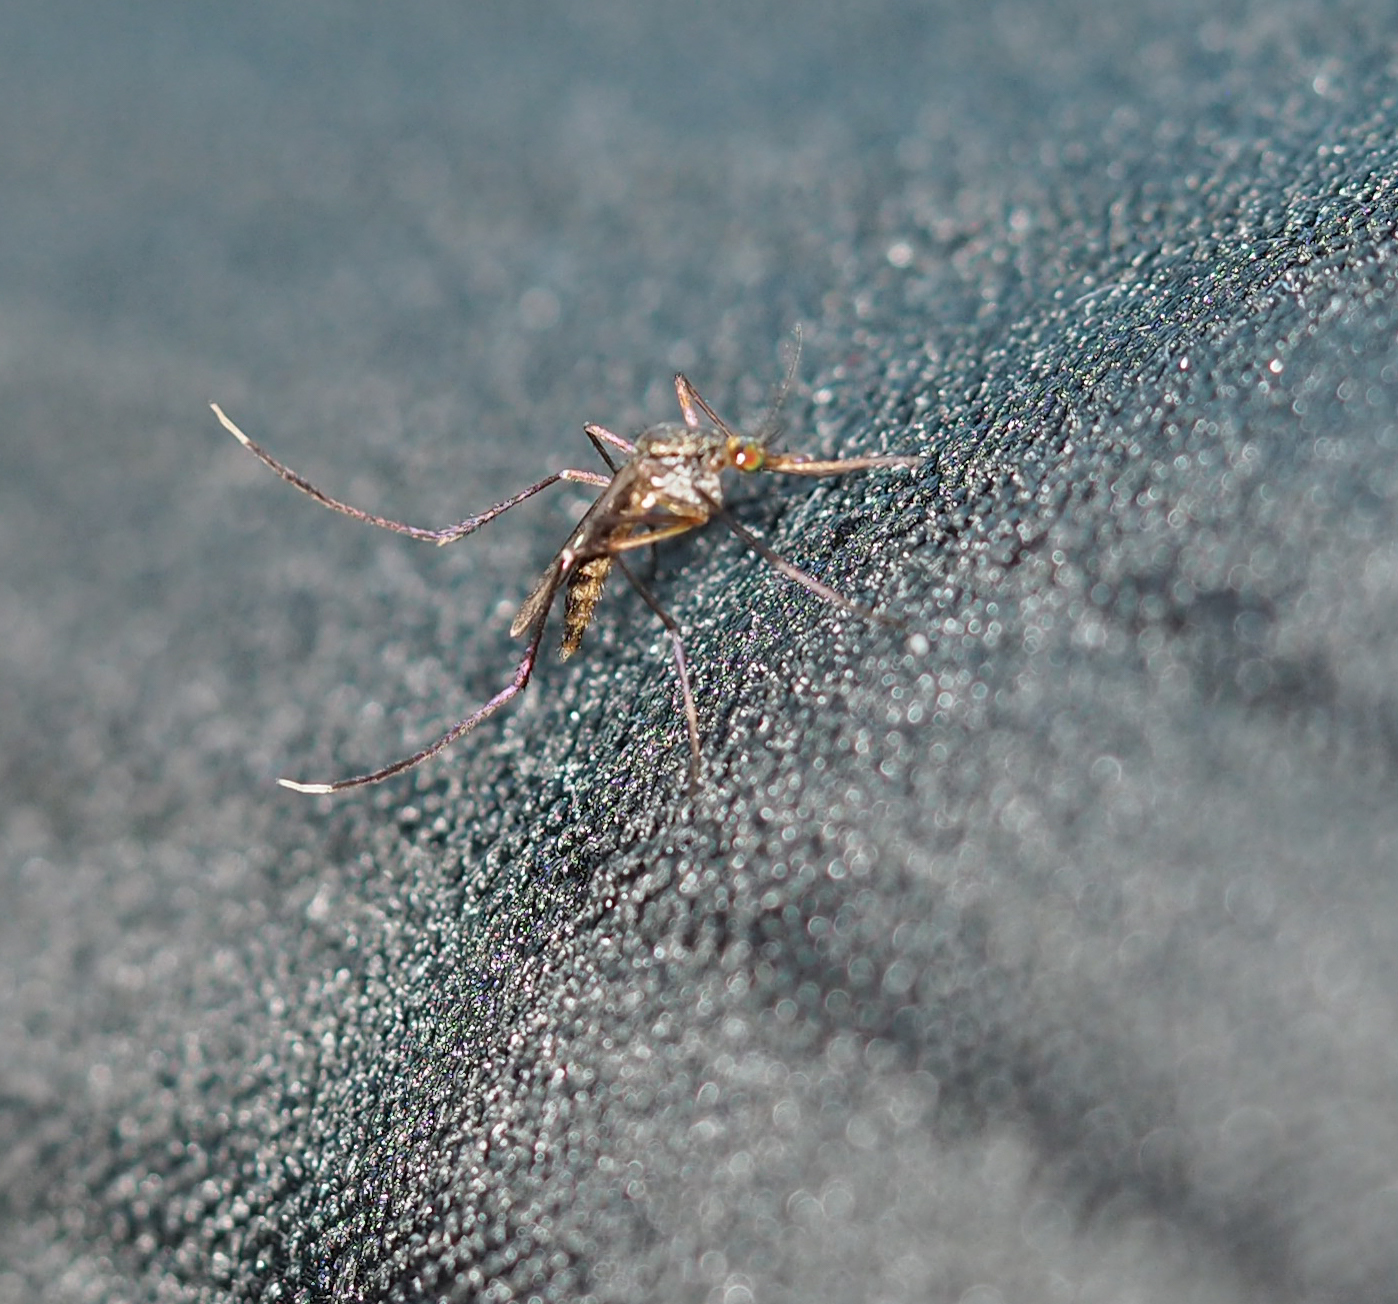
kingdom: Animalia
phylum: Arthropoda
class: Insecta
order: Diptera
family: Culicidae
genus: Psorophora
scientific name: Psorophora ferox
